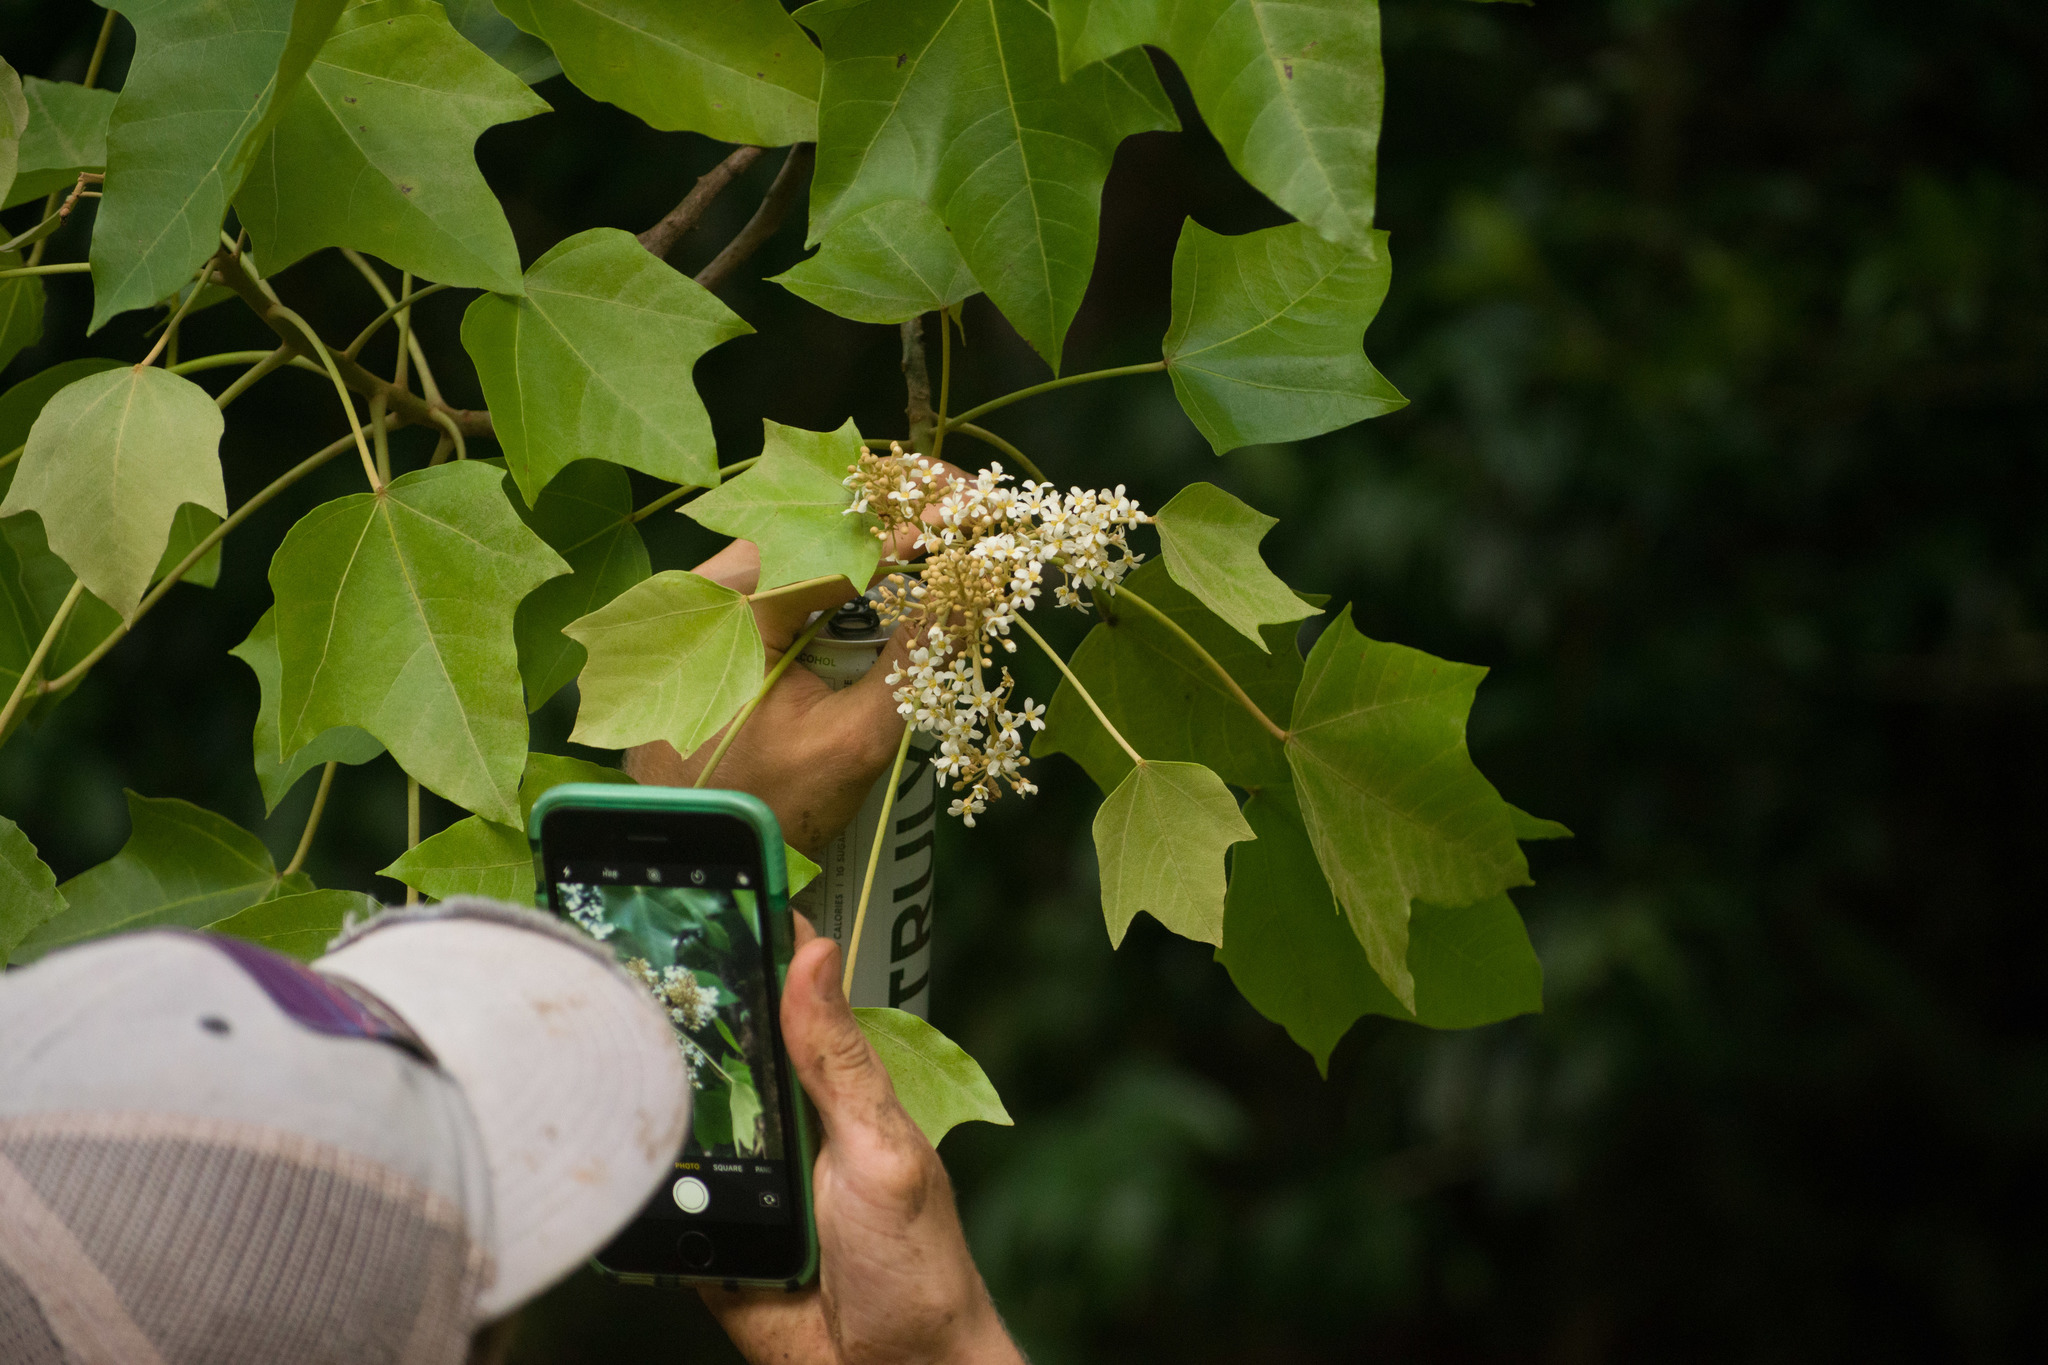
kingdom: Plantae
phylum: Tracheophyta
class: Magnoliopsida
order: Malpighiales
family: Euphorbiaceae
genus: Aleurites
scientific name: Aleurites moluccanus
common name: Candlenut tree
